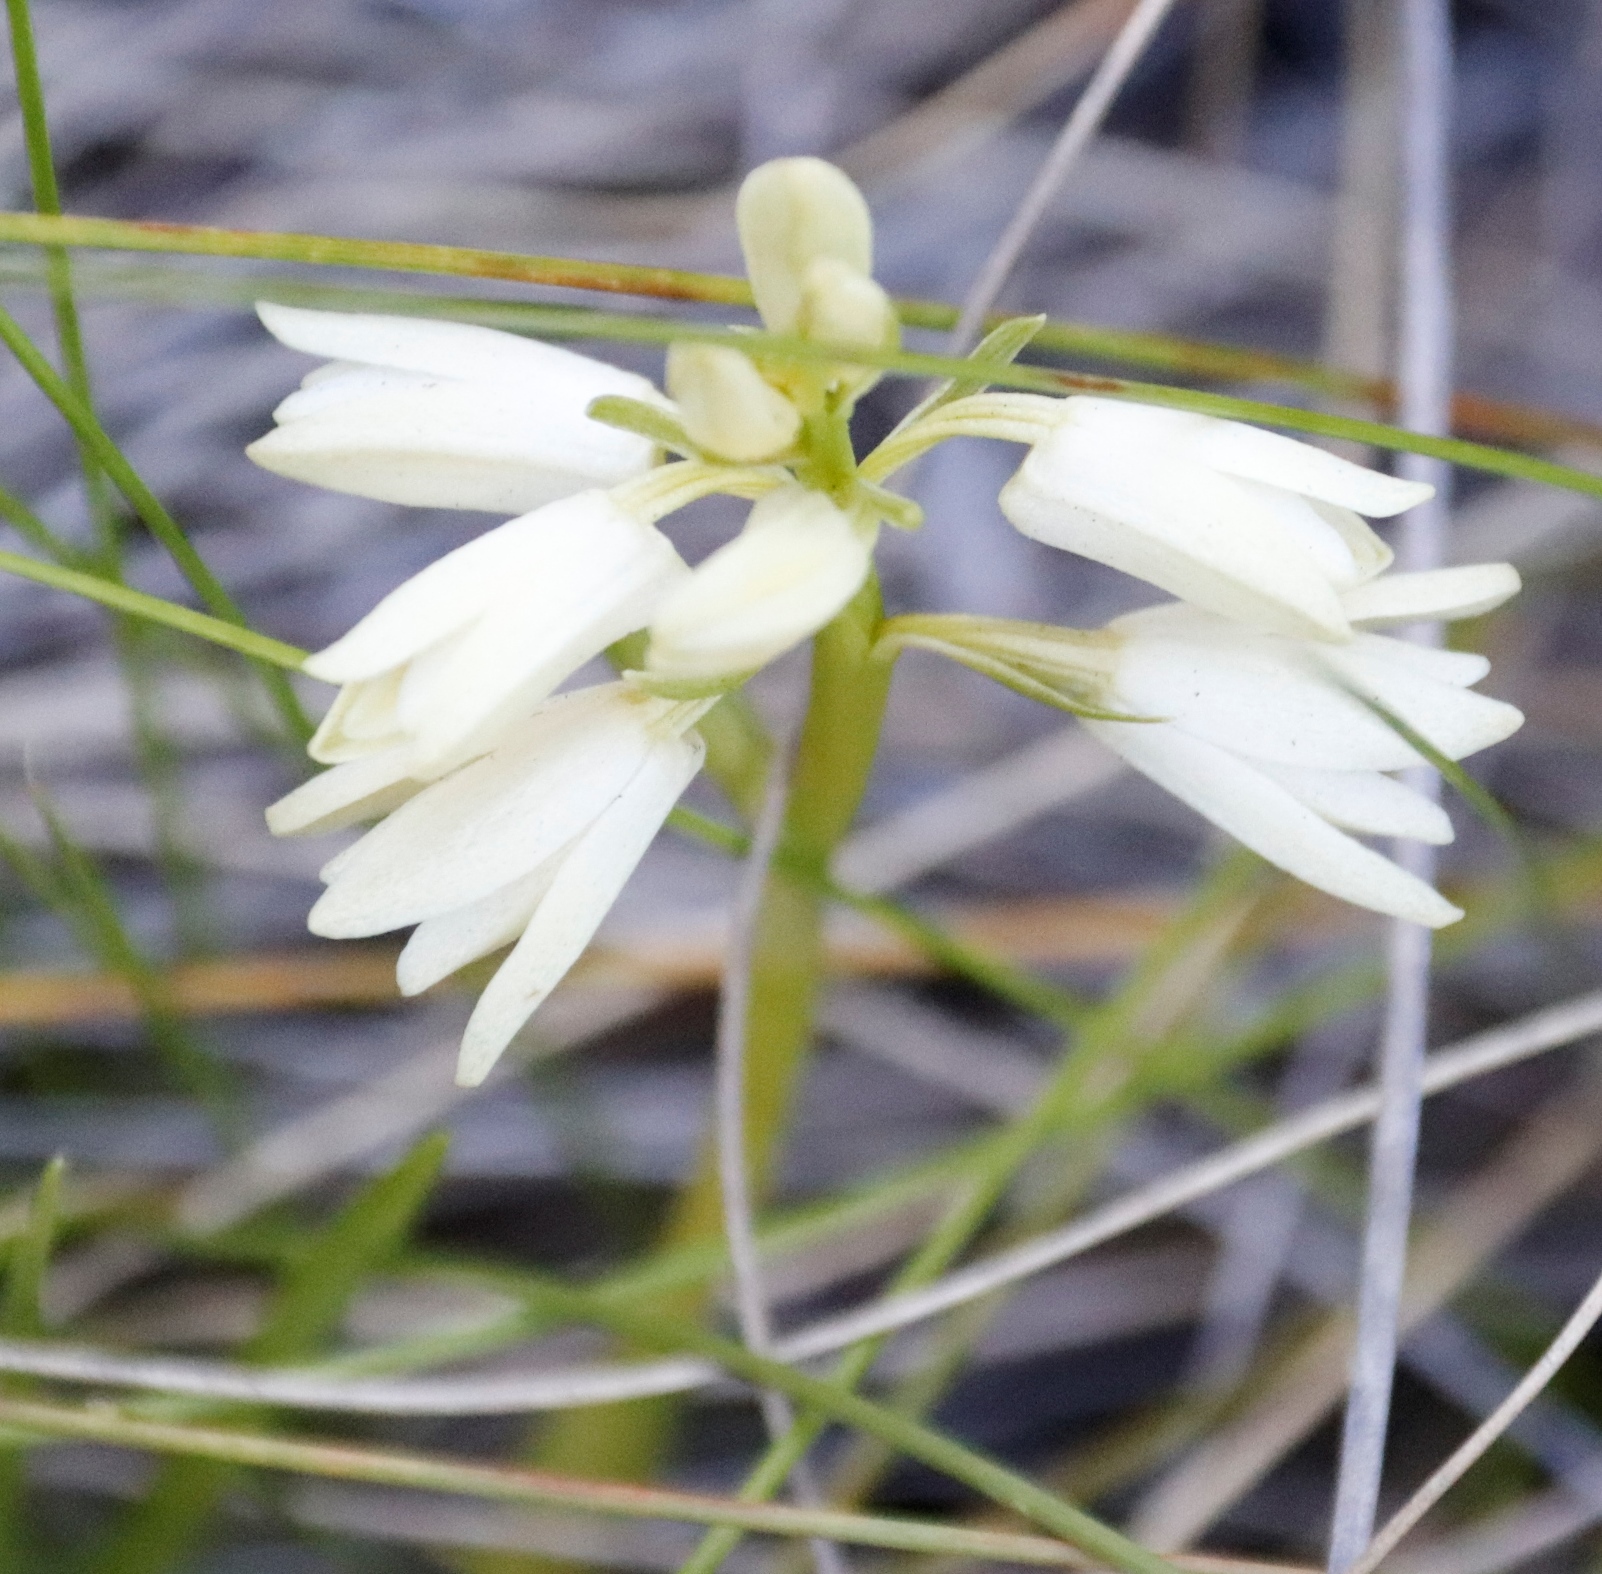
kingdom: Plantae
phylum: Tracheophyta
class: Liliopsida
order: Asparagales
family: Orchidaceae
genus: Eulophia
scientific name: Eulophia aculeata
